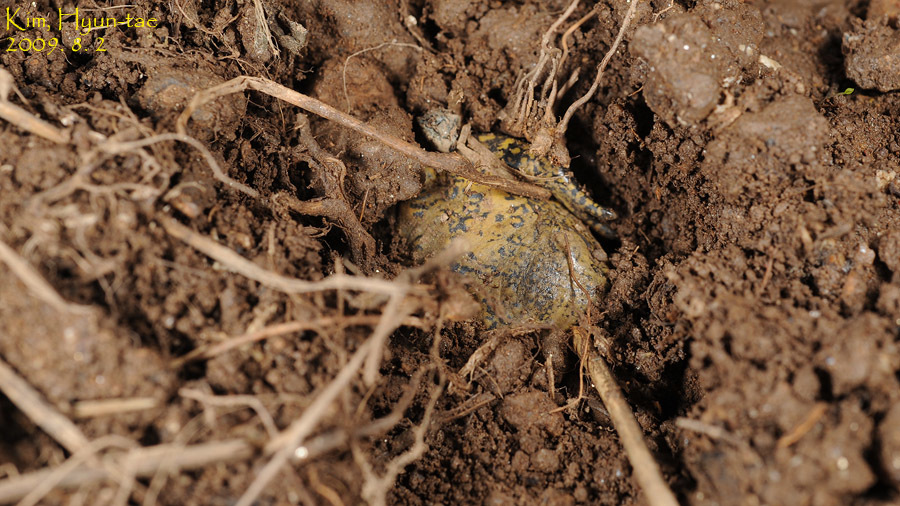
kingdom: Animalia
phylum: Chordata
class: Amphibia
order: Anura
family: Microhylidae
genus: Kaloula
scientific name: Kaloula borealis
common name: Boreal digging frog
